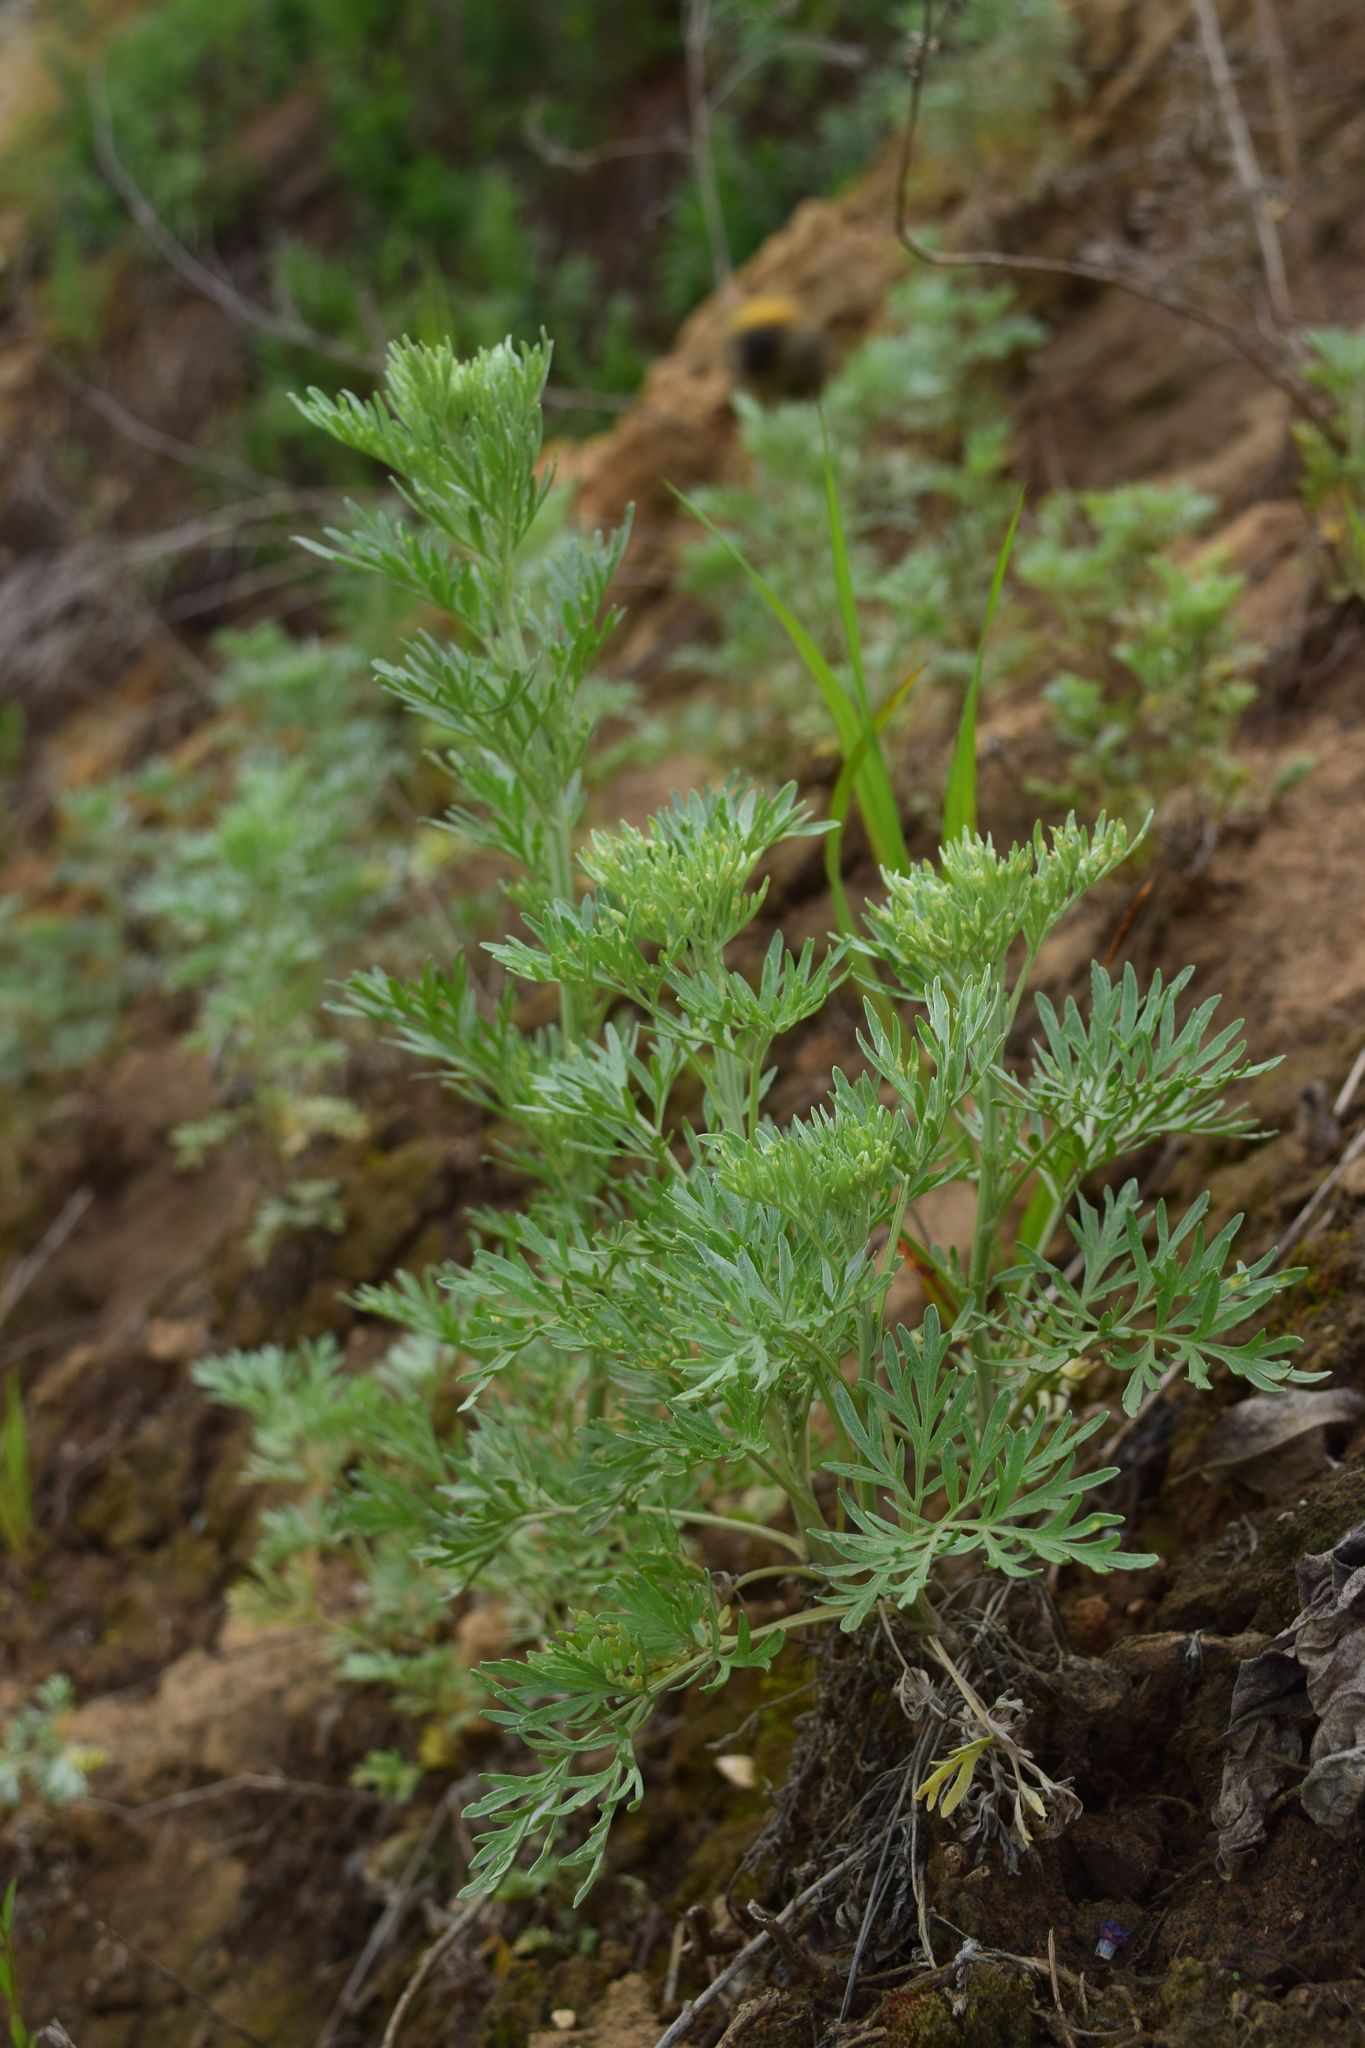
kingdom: Plantae
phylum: Tracheophyta
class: Magnoliopsida
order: Asterales
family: Asteraceae
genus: Artemisia
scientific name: Artemisia absinthium
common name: Wormwood
